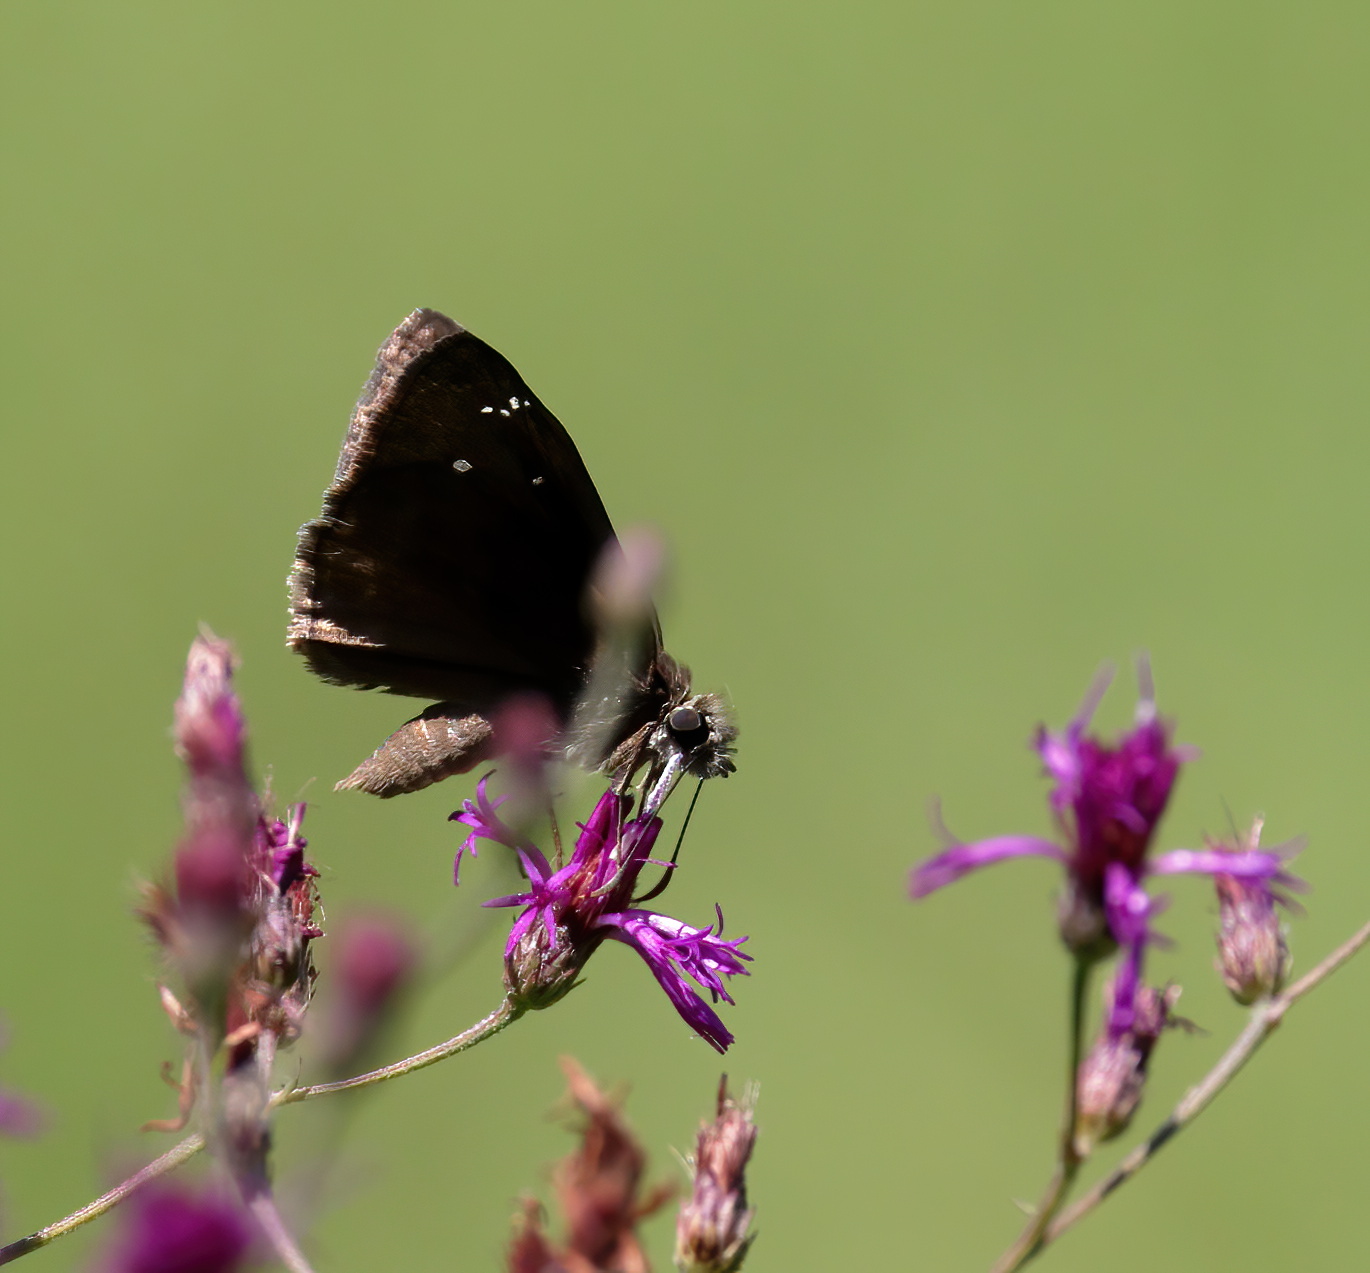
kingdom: Animalia
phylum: Arthropoda
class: Insecta
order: Lepidoptera
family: Hesperiidae
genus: Erynnis
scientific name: Erynnis horatius
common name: Horace's duskywing
